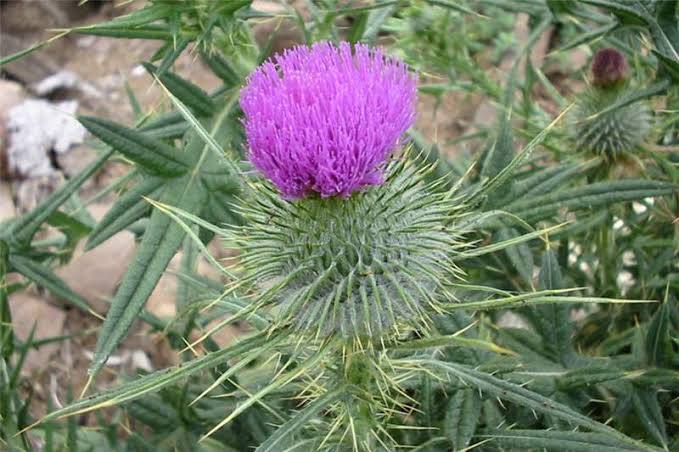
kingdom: Plantae
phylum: Tracheophyta
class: Magnoliopsida
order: Asterales
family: Asteraceae
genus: Cirsium
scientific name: Cirsium vulgare
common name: Bull thistle
